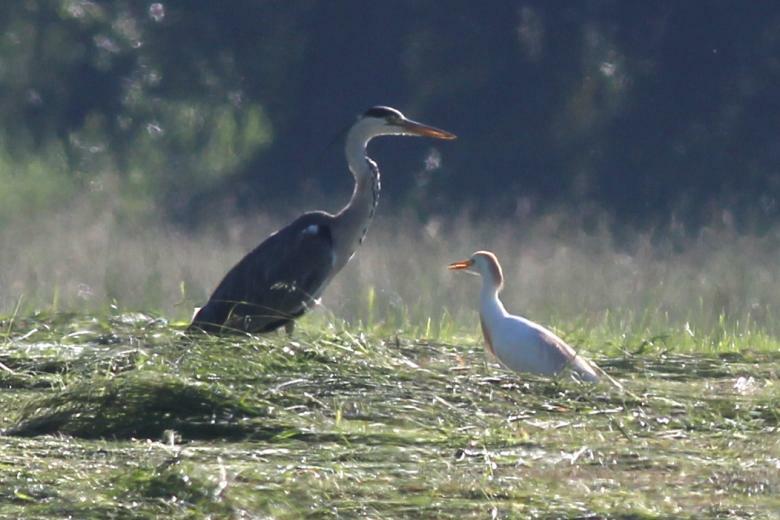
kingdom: Animalia
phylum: Chordata
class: Aves
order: Pelecaniformes
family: Ardeidae
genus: Bubulcus
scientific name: Bubulcus ibis
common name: Cattle egret
